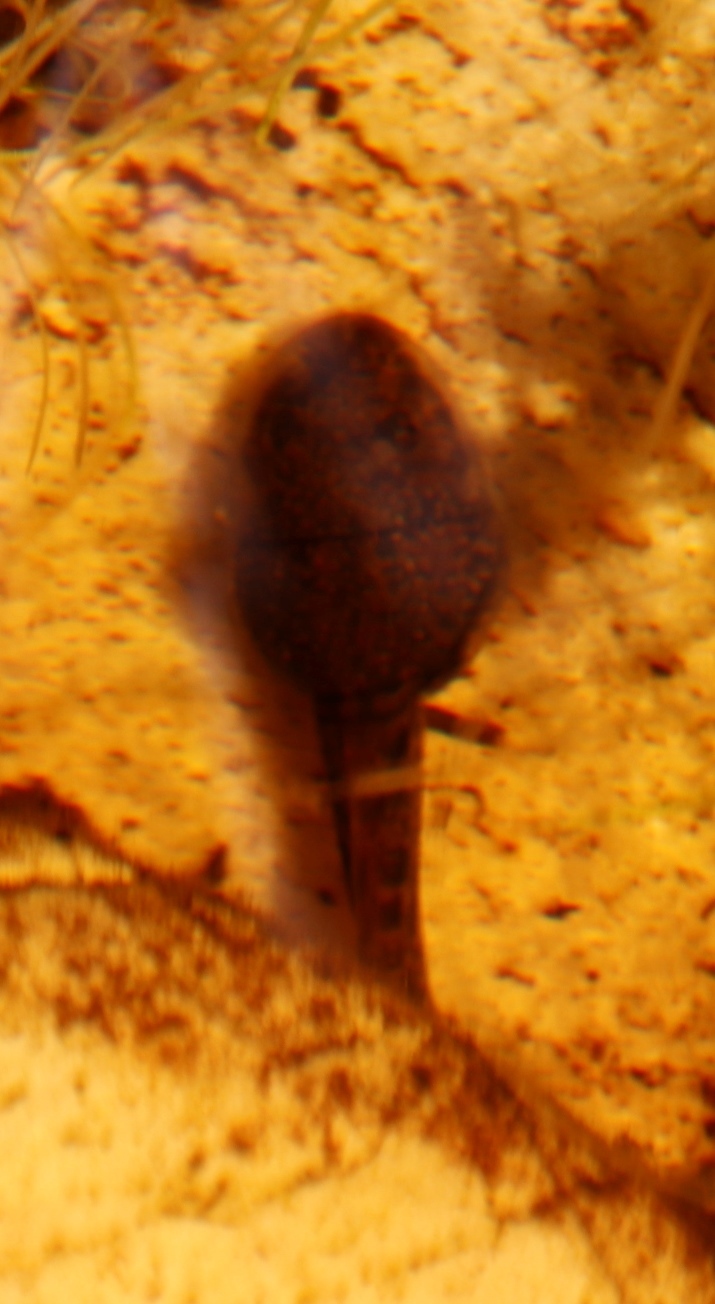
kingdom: Animalia
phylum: Chordata
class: Amphibia
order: Anura
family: Pyxicephalidae
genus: Amietia
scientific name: Amietia fuscigula
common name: Cape rana
